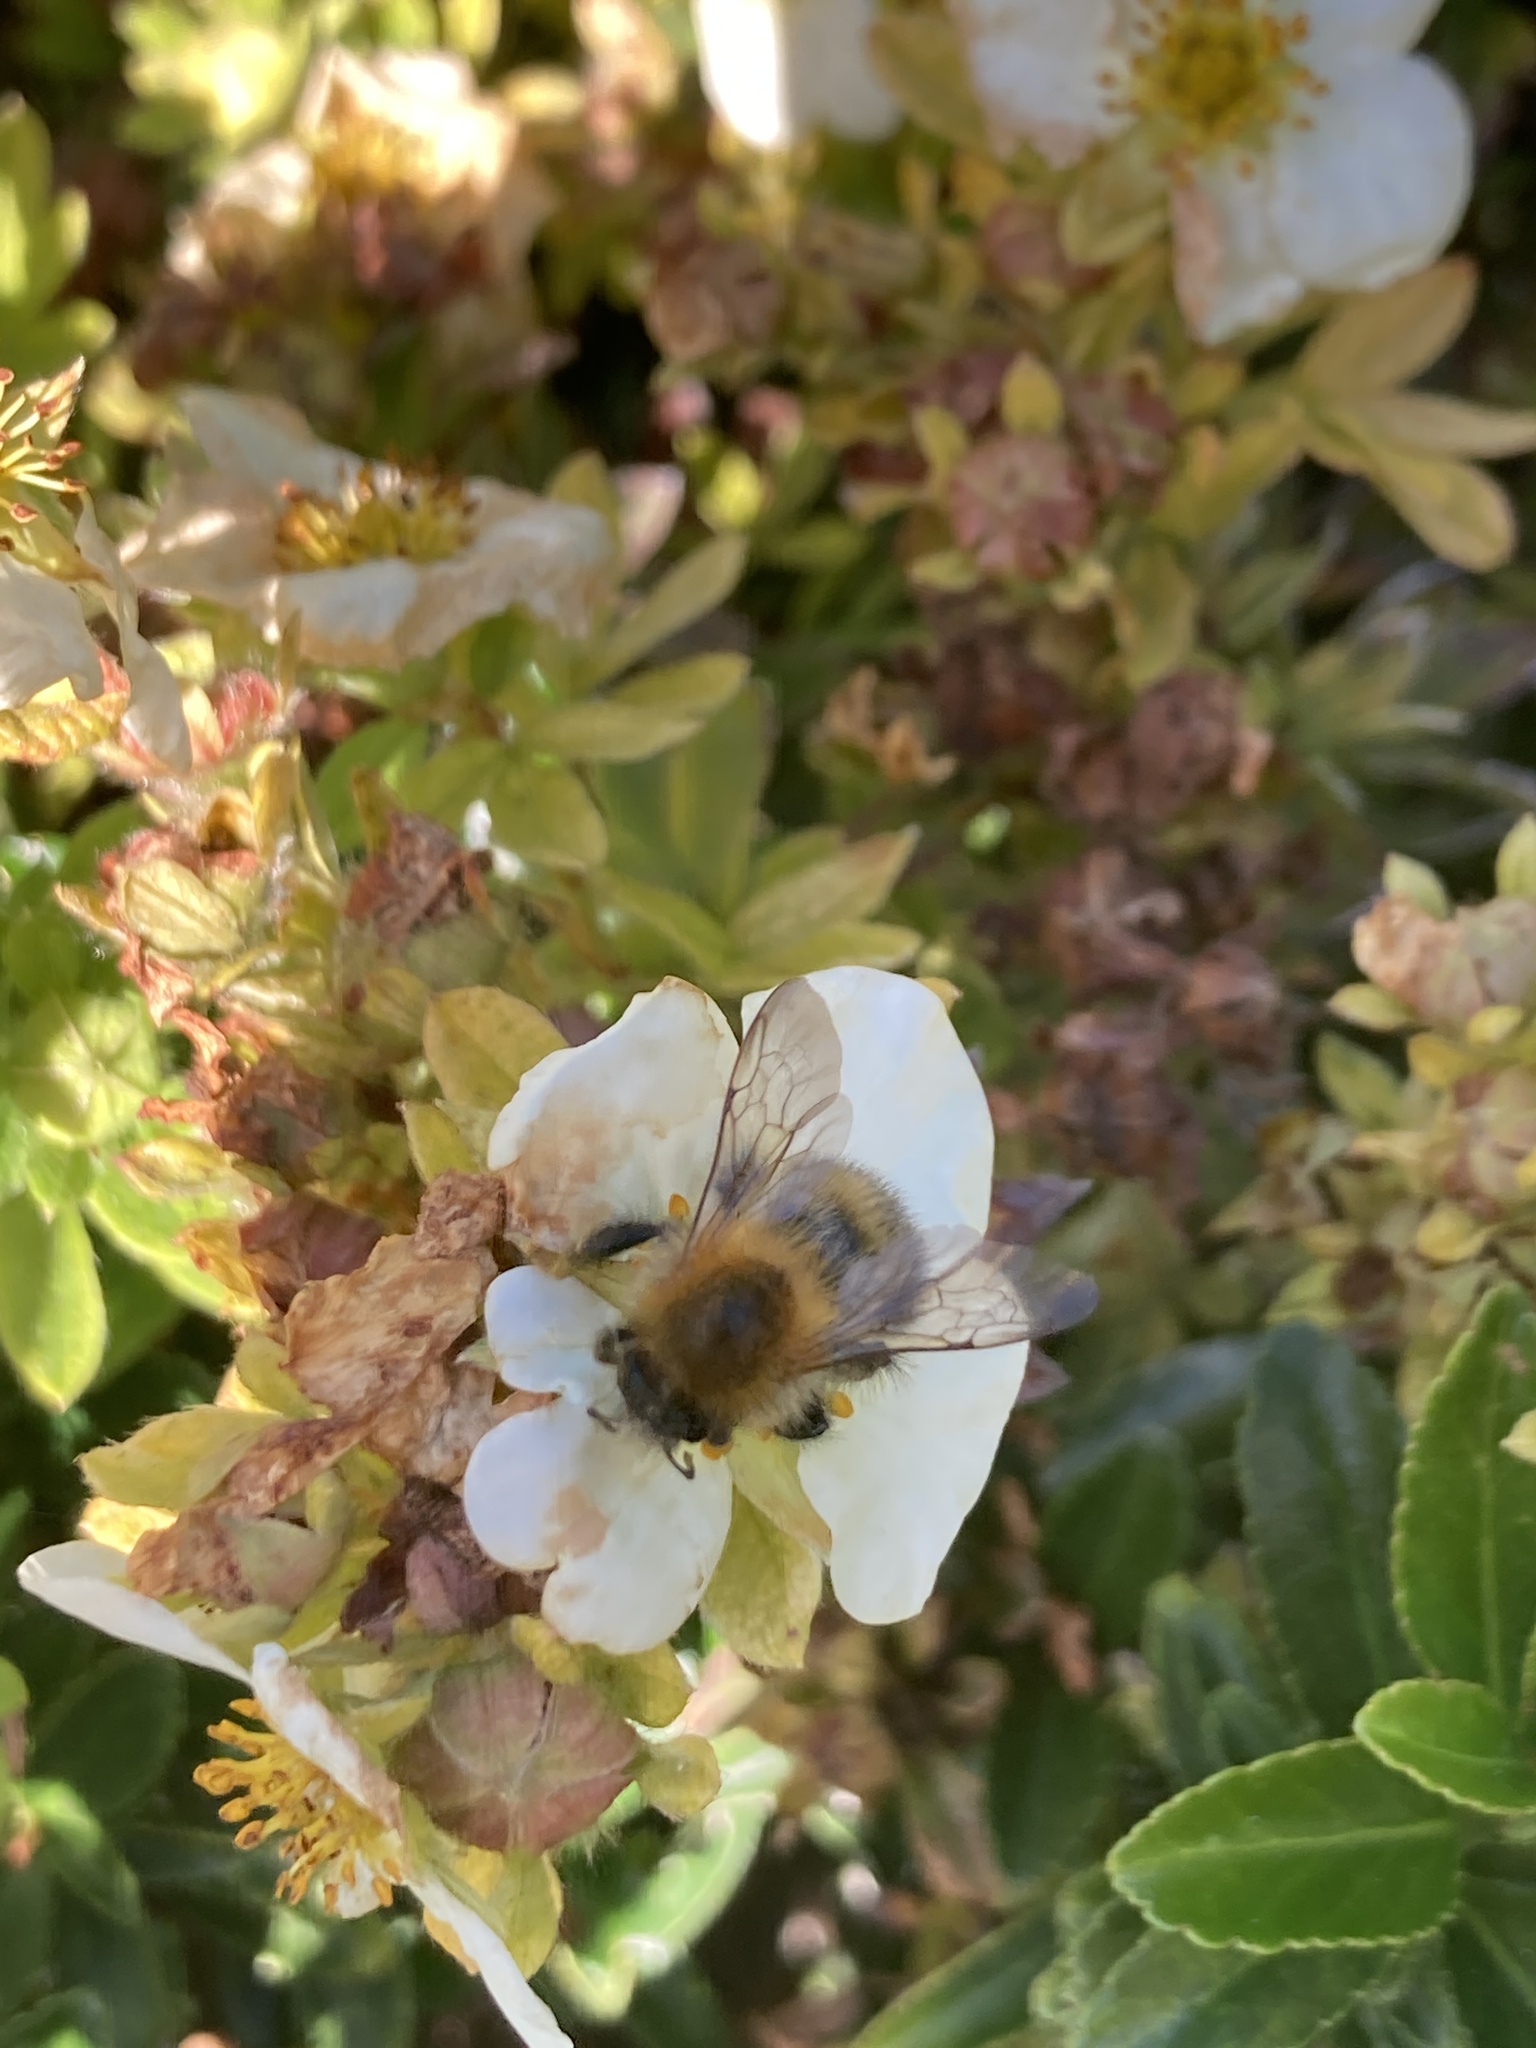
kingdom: Animalia
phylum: Arthropoda
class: Insecta
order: Hymenoptera
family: Apidae
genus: Bombus
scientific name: Bombus pascuorum
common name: Common carder bee
